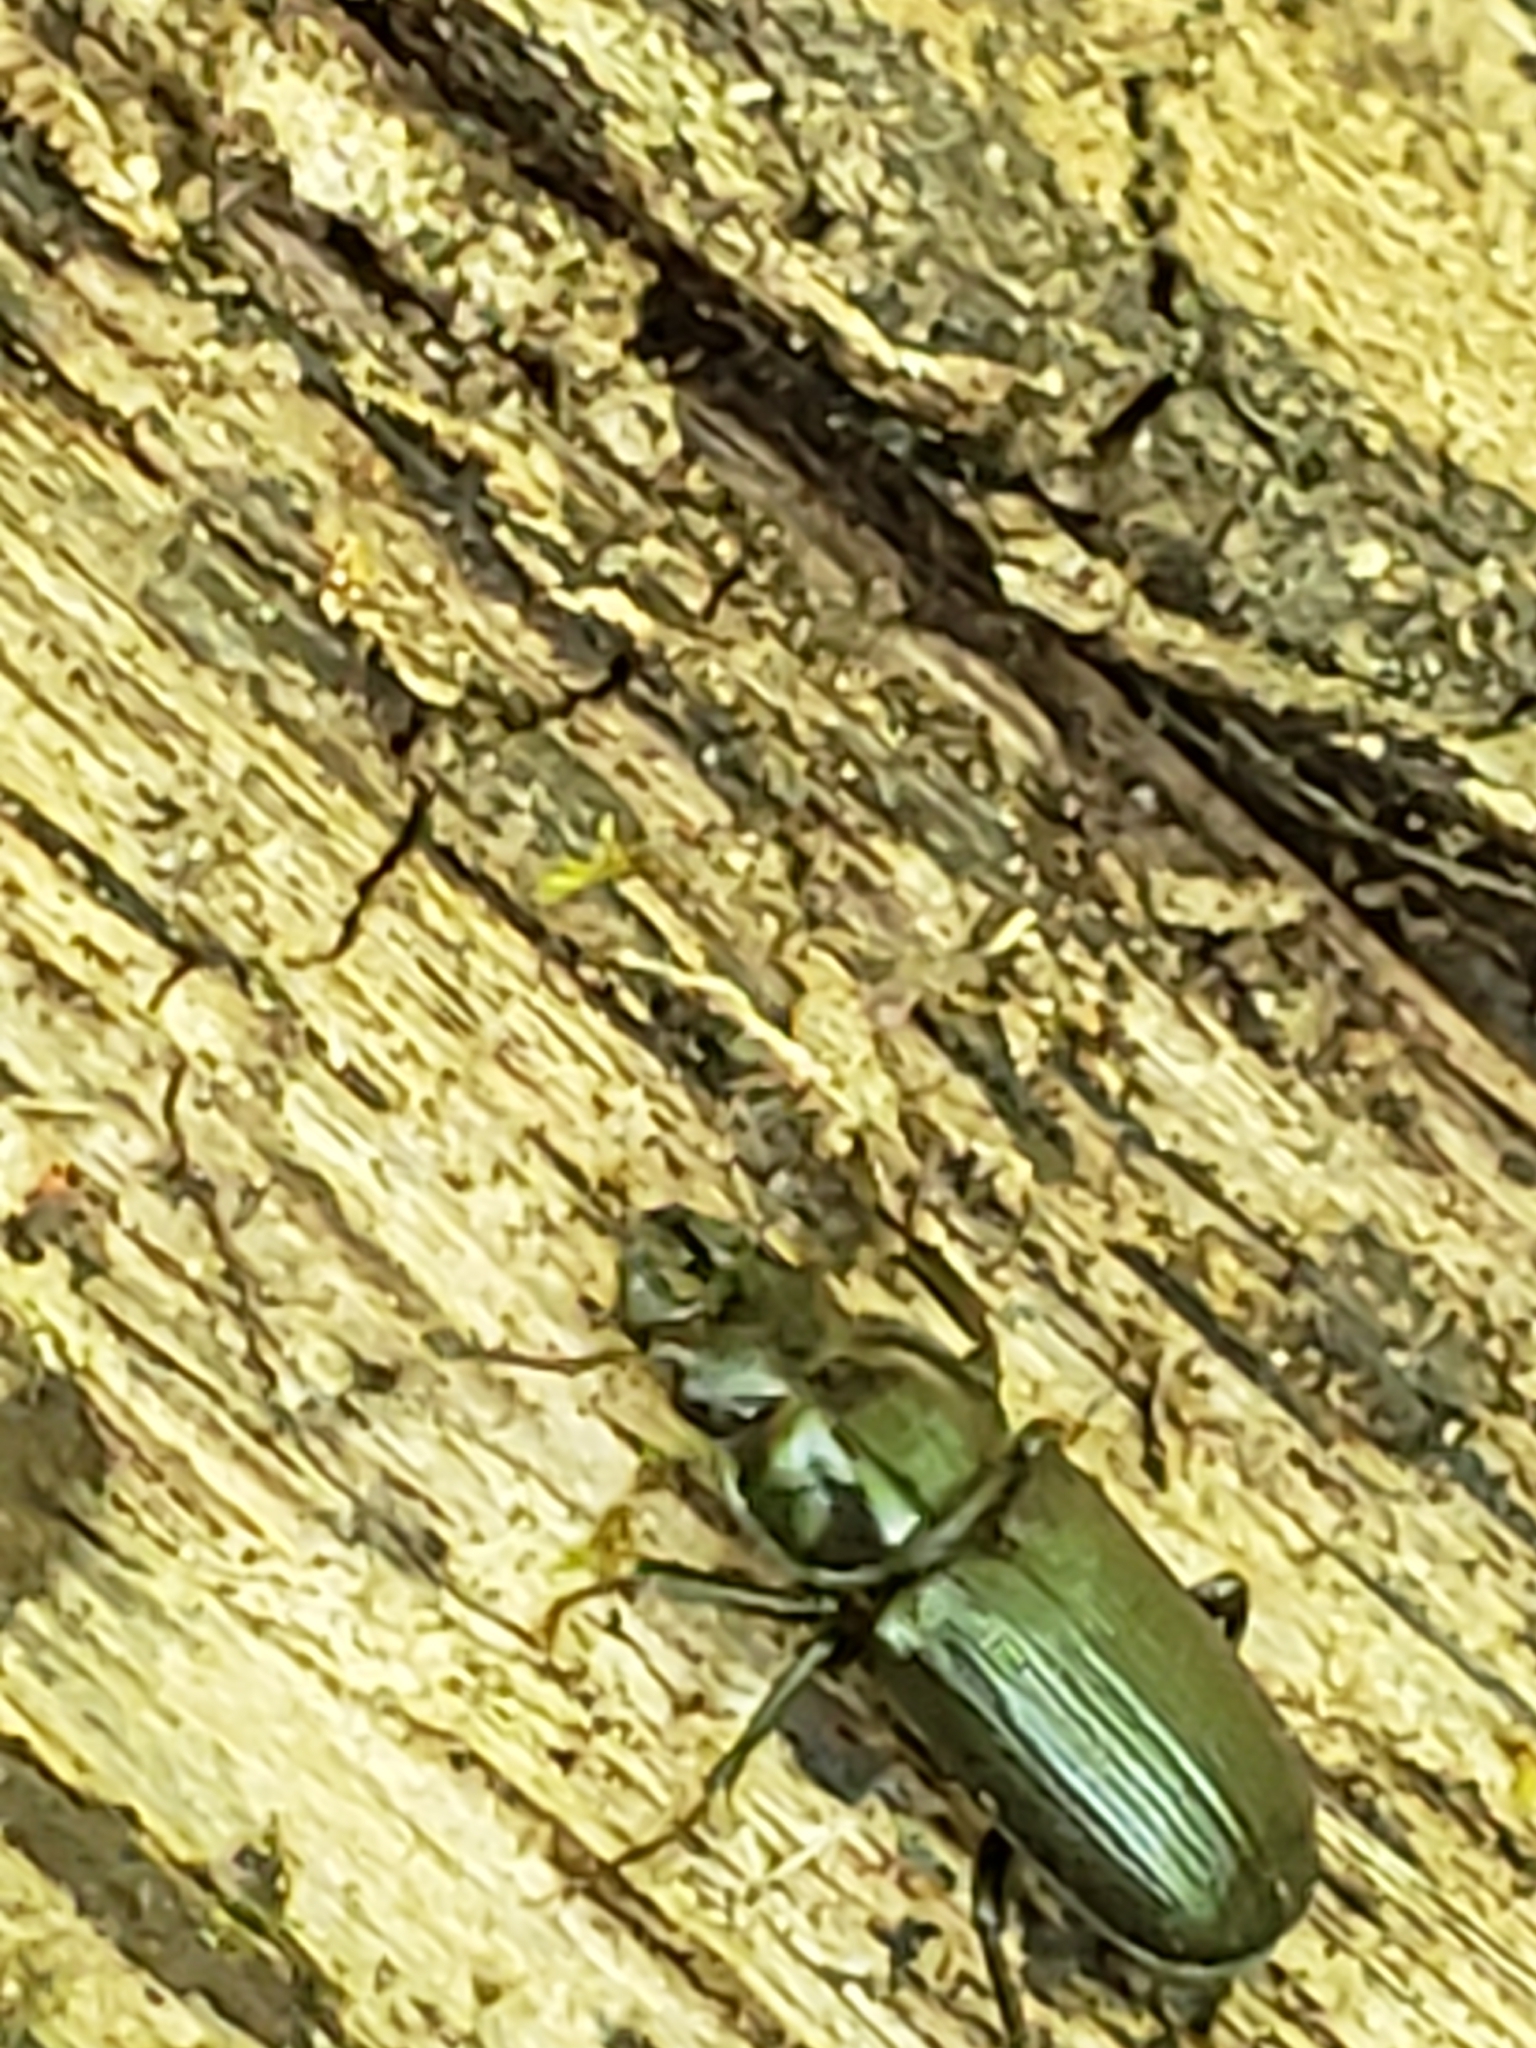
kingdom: Animalia
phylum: Arthropoda
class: Insecta
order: Coleoptera
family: Lucanidae
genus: Platycerus
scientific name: Platycerus quercus
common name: Oak stag beetle
